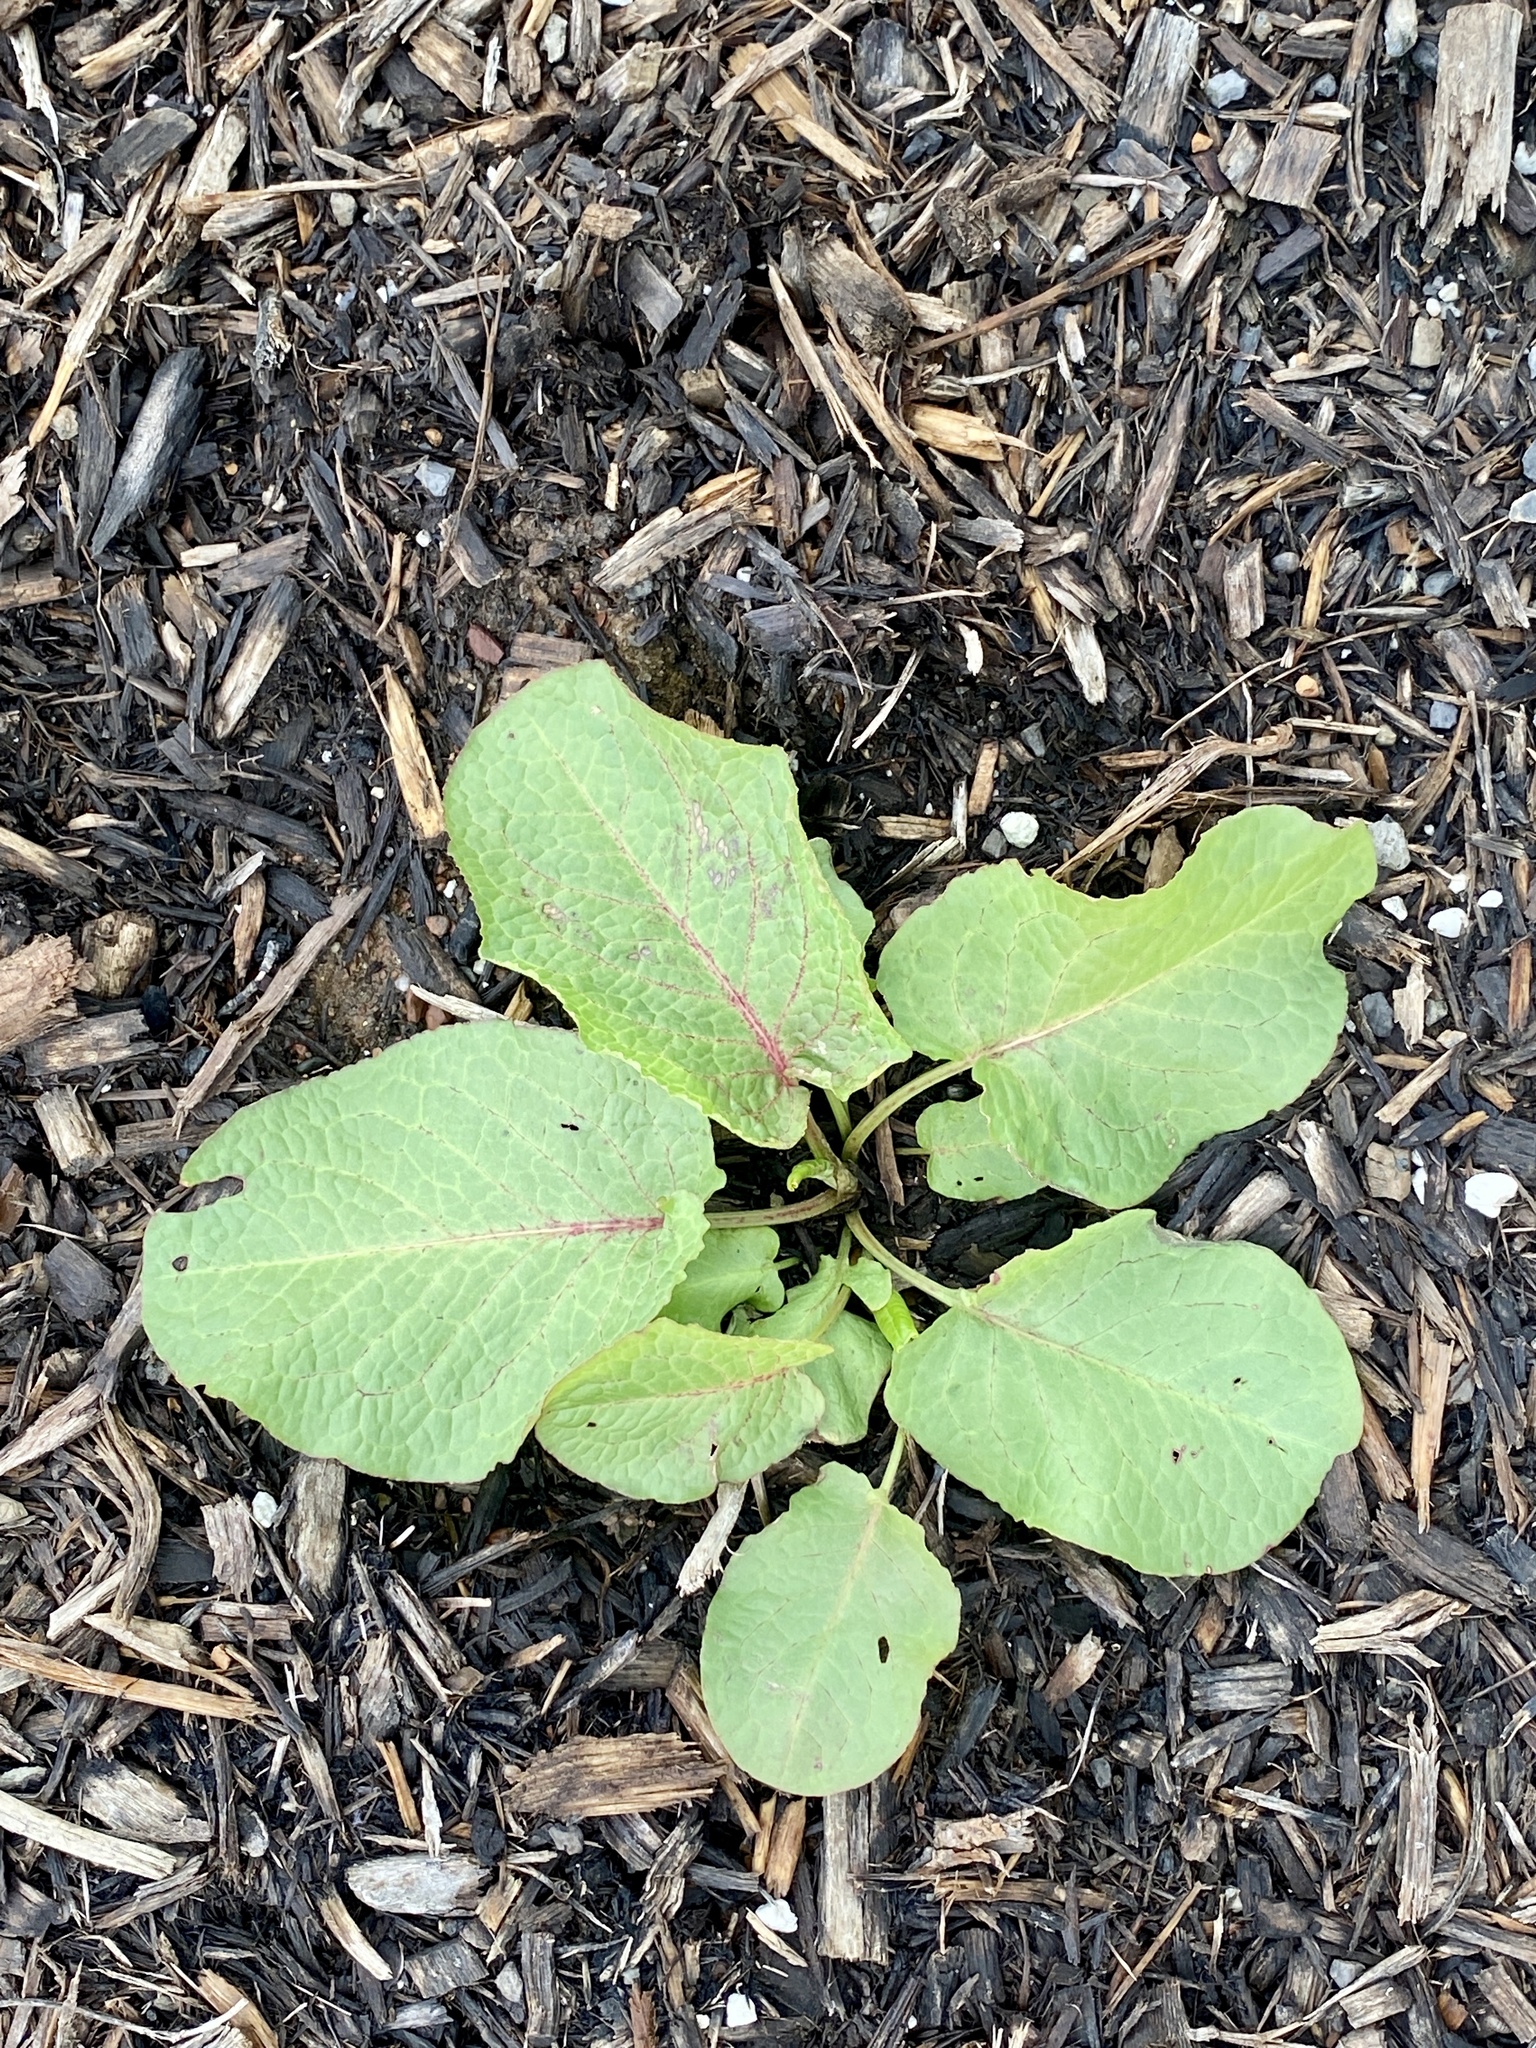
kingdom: Plantae
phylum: Tracheophyta
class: Magnoliopsida
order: Caryophyllales
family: Polygonaceae
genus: Rumex
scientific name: Rumex obtusifolius
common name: Bitter dock
